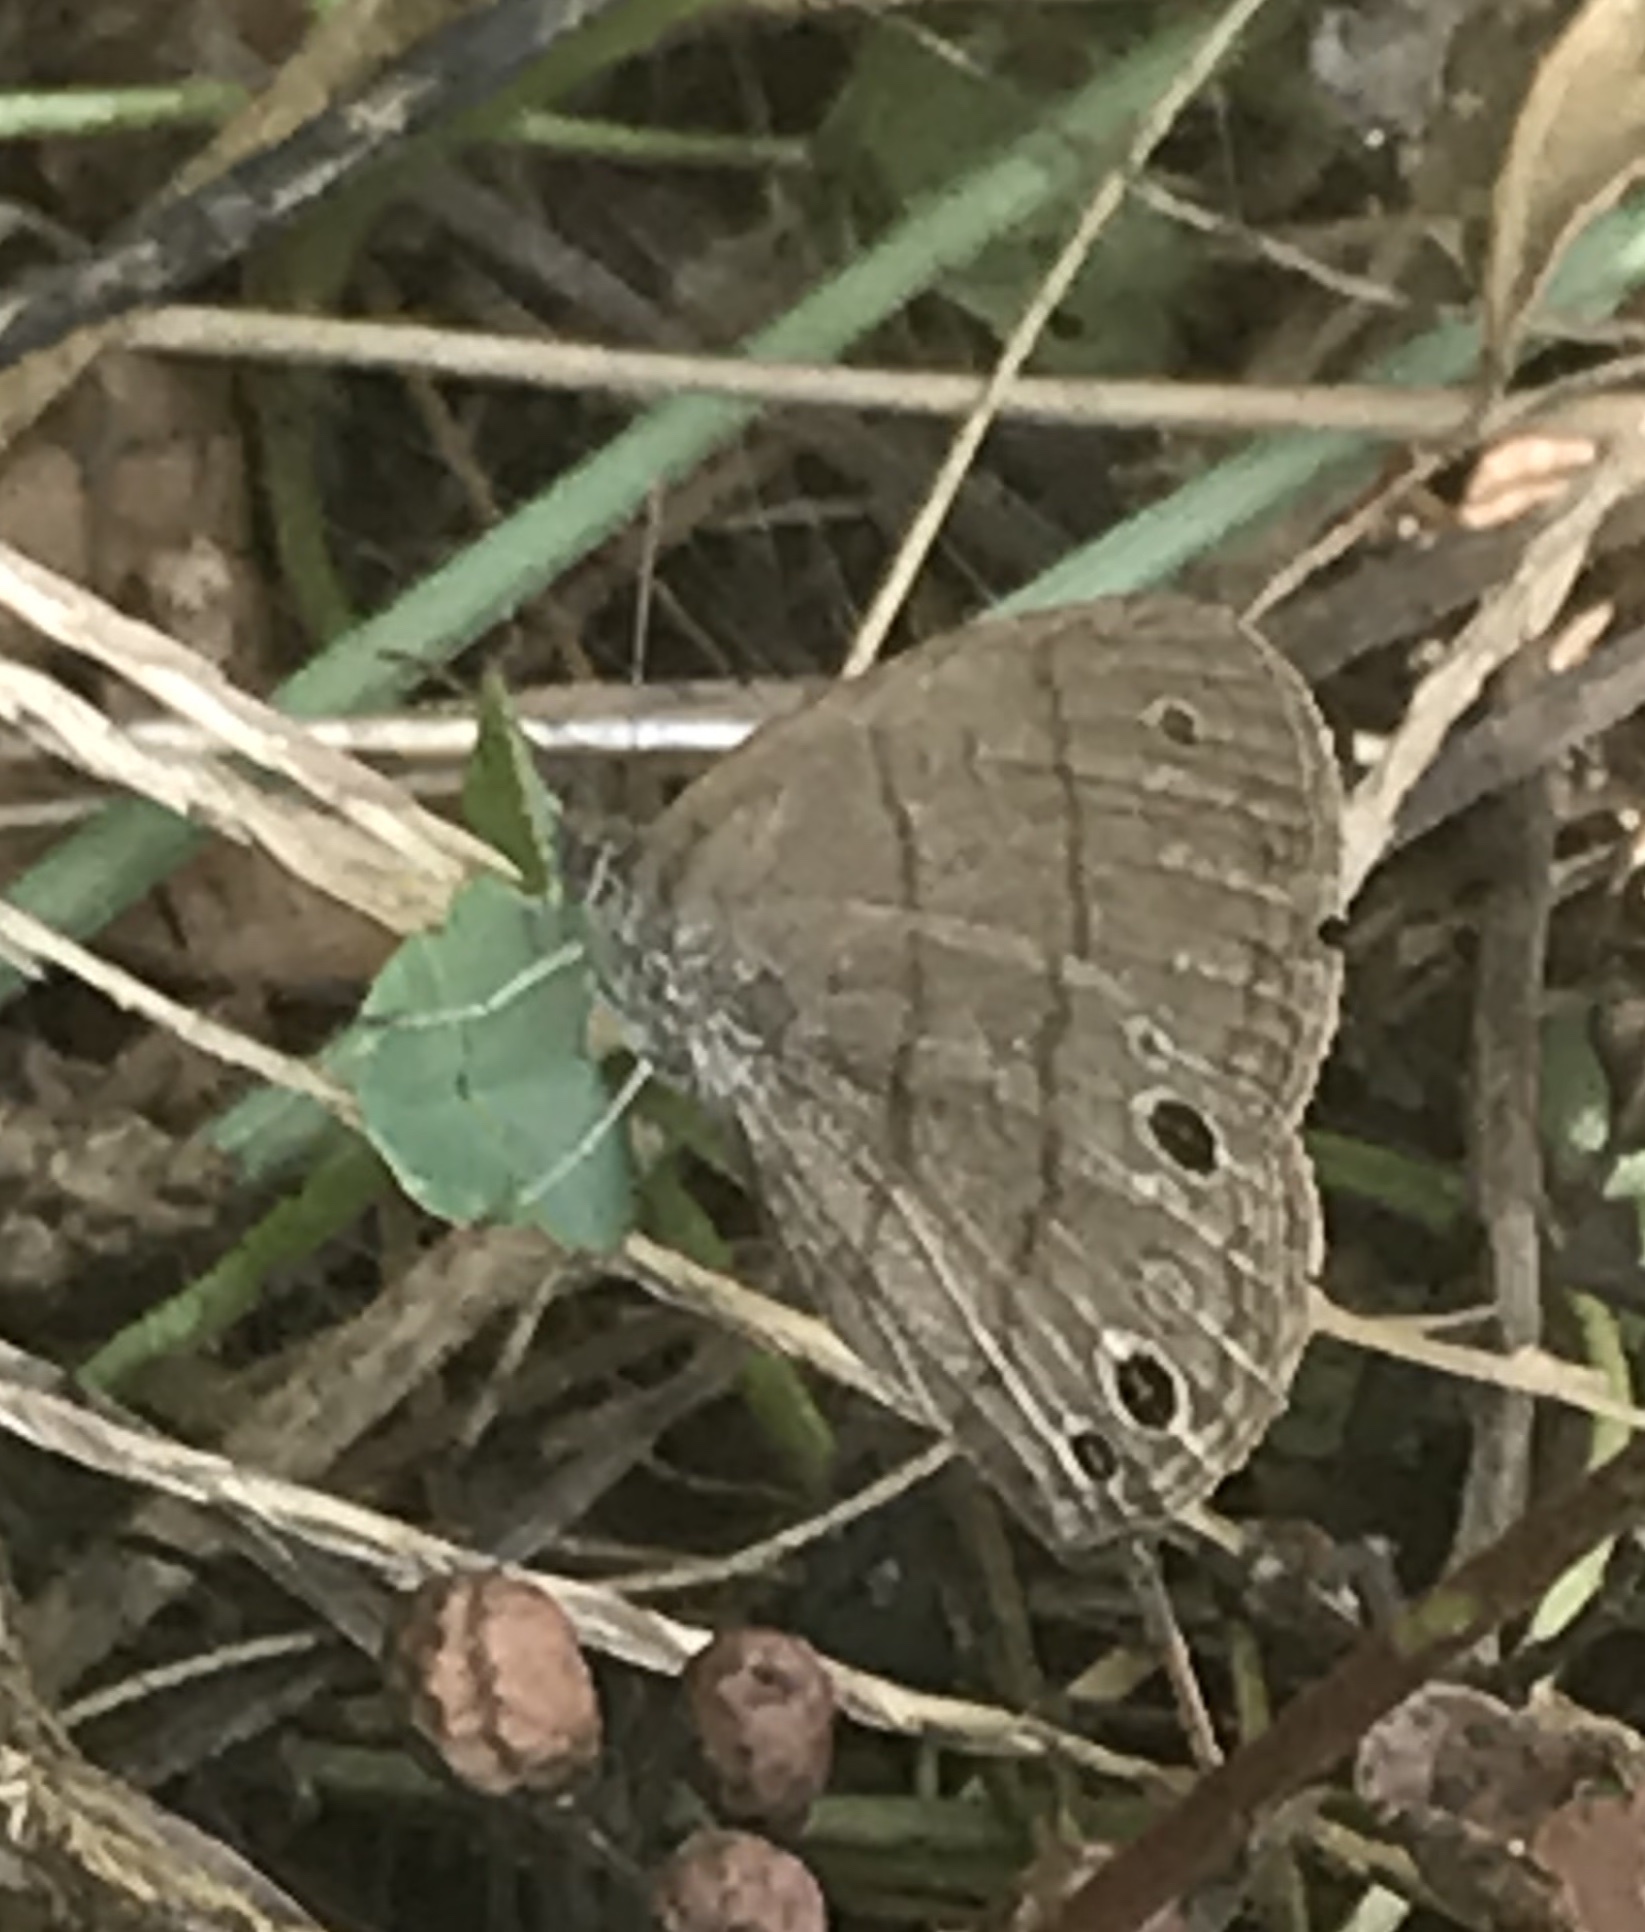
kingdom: Animalia
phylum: Arthropoda
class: Insecta
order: Lepidoptera
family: Nymphalidae
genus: Hermeuptychia
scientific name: Hermeuptychia hermes
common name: Hermes satyr
